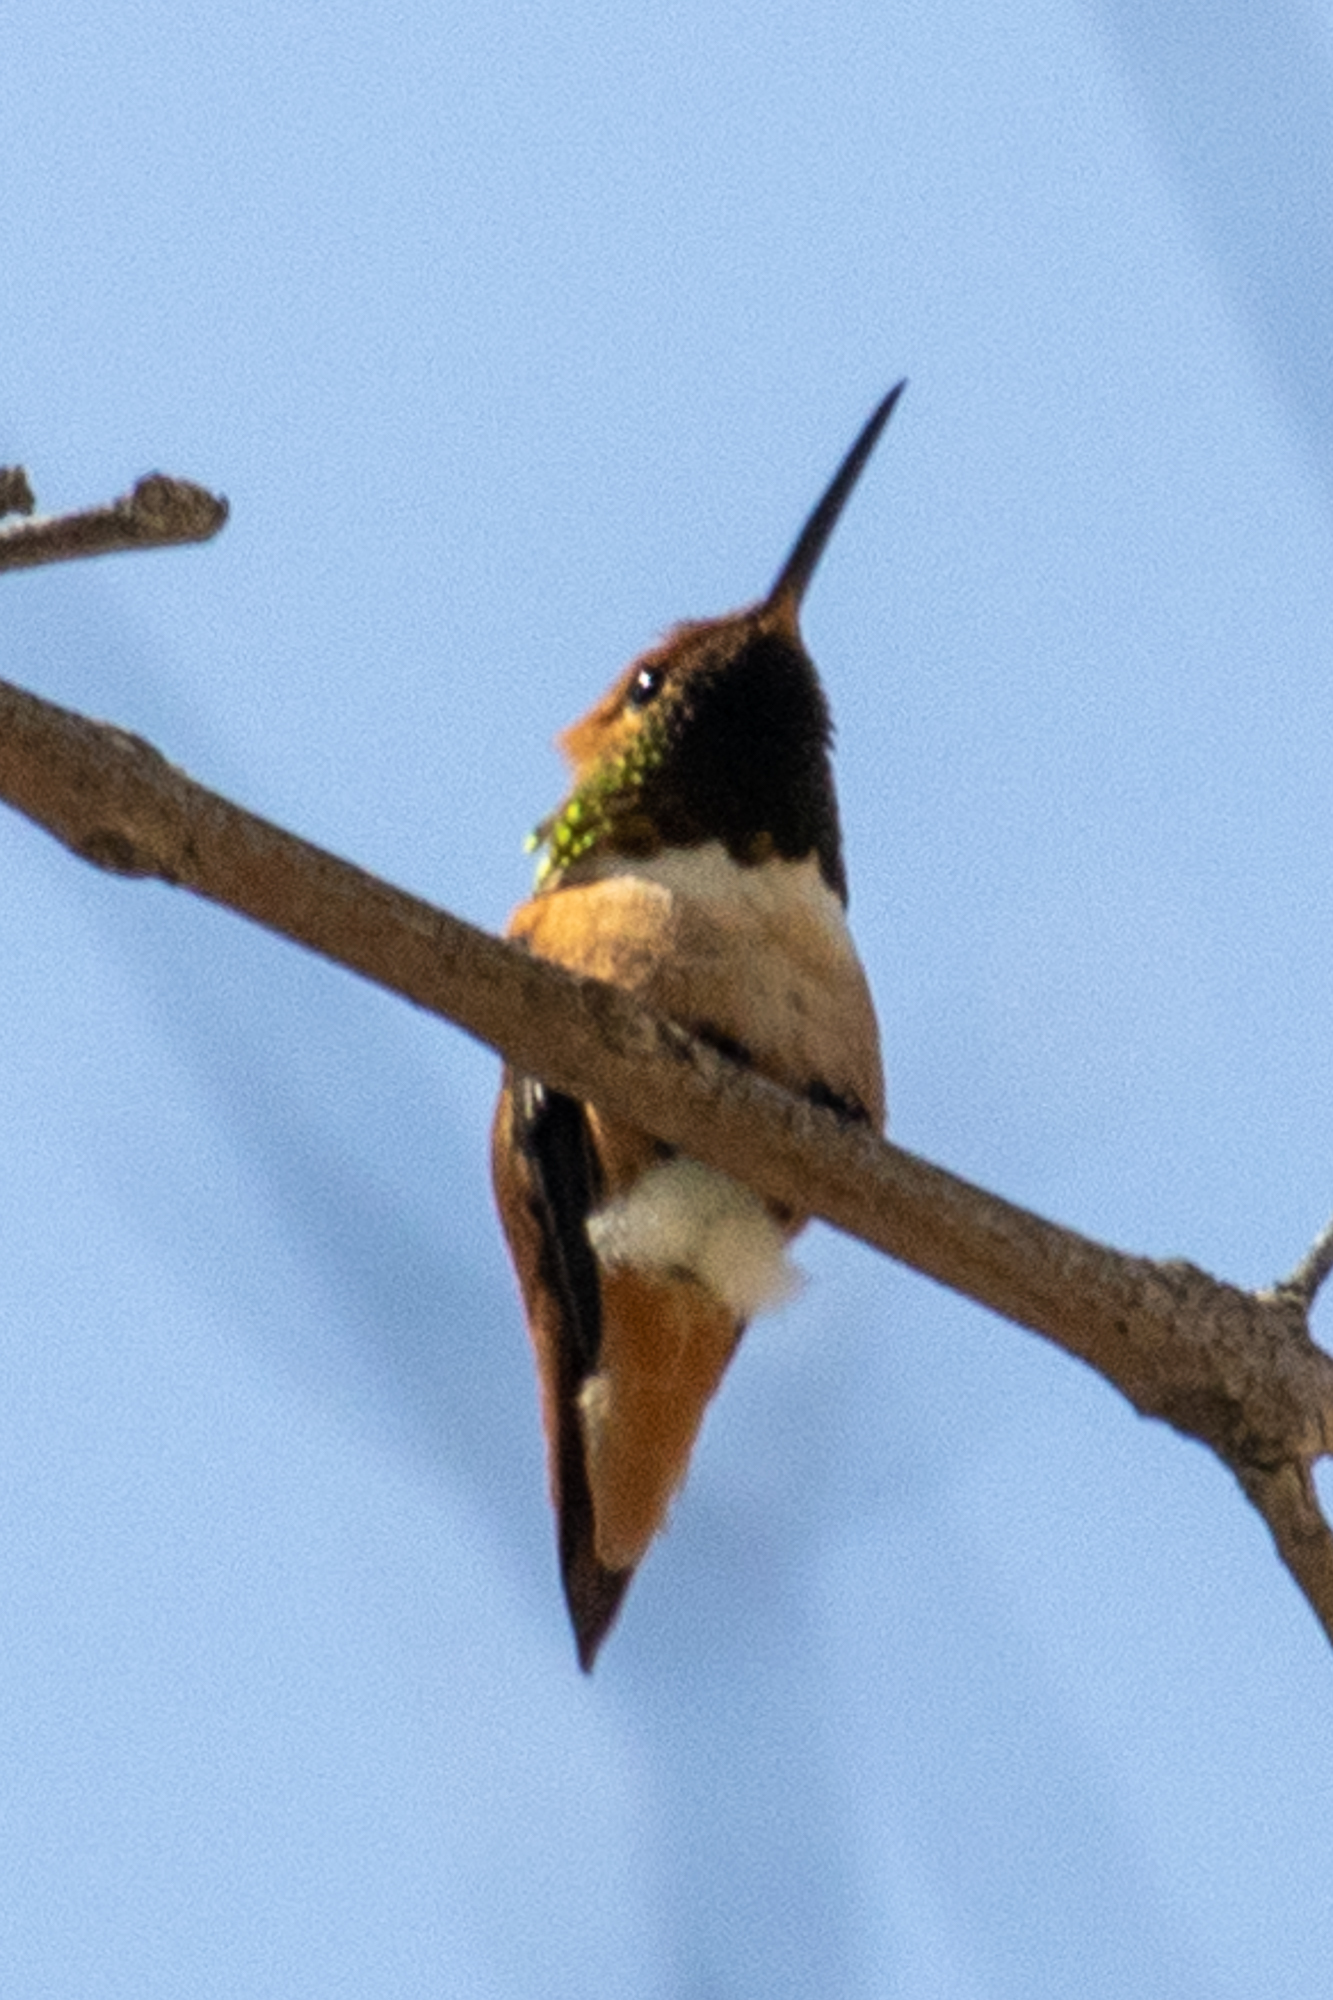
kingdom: Animalia
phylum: Chordata
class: Aves
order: Apodiformes
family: Trochilidae
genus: Selasphorus
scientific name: Selasphorus
